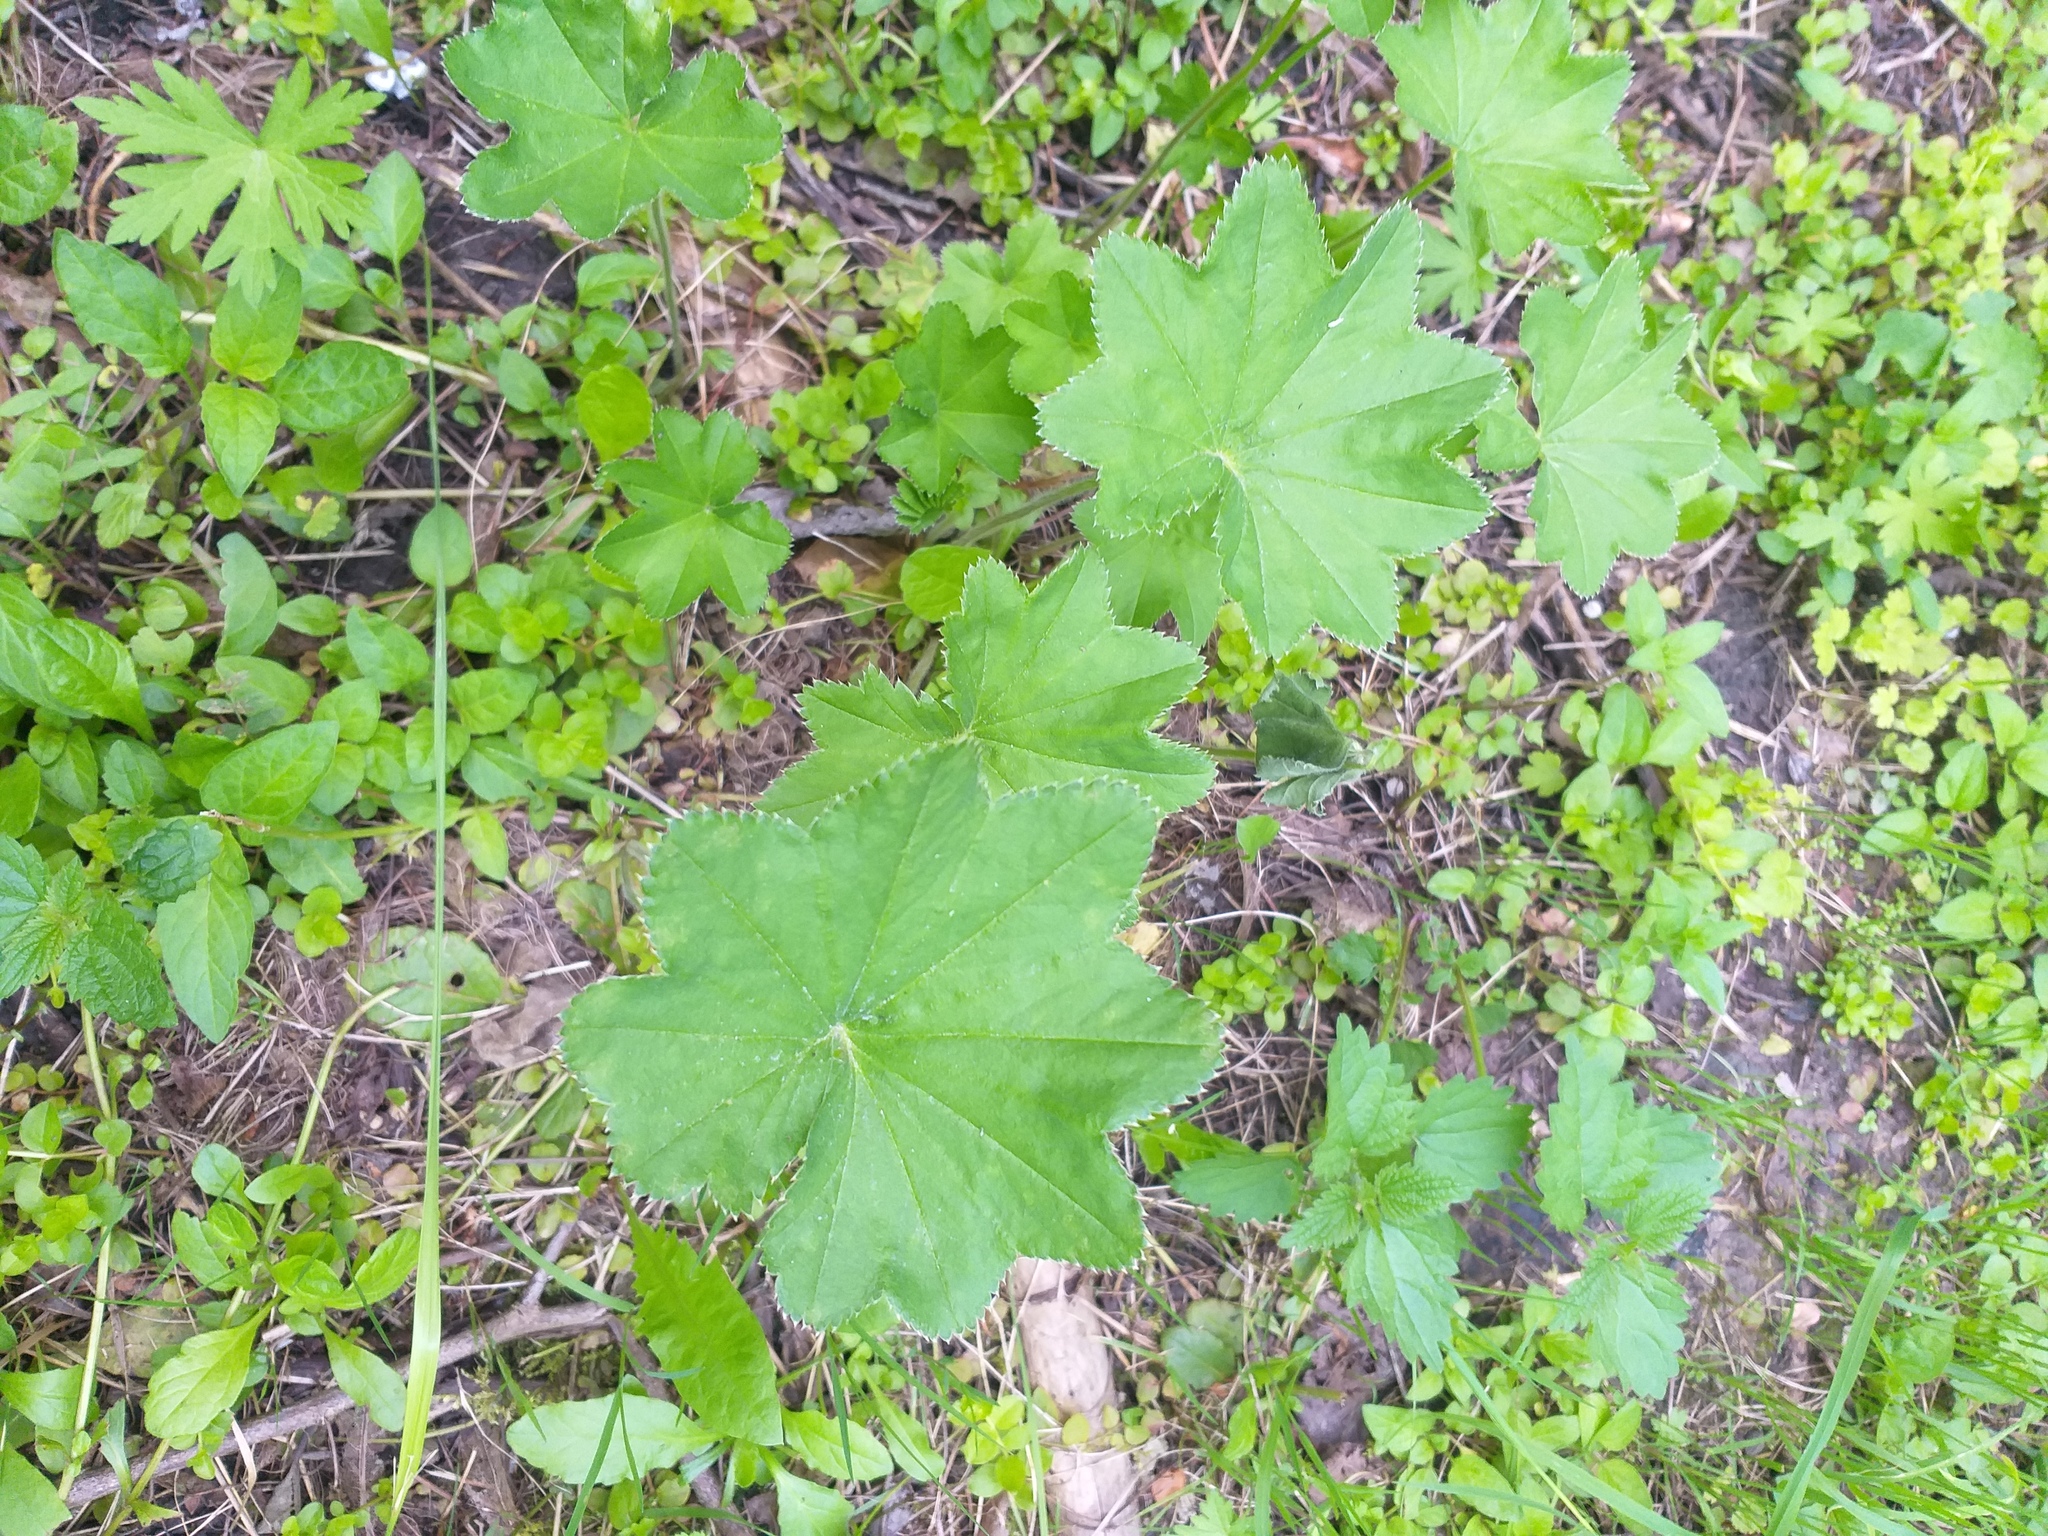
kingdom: Plantae
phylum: Tracheophyta
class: Magnoliopsida
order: Rosales
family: Rosaceae
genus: Alchemilla
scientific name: Alchemilla micans
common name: Gleaming lady's mantle
